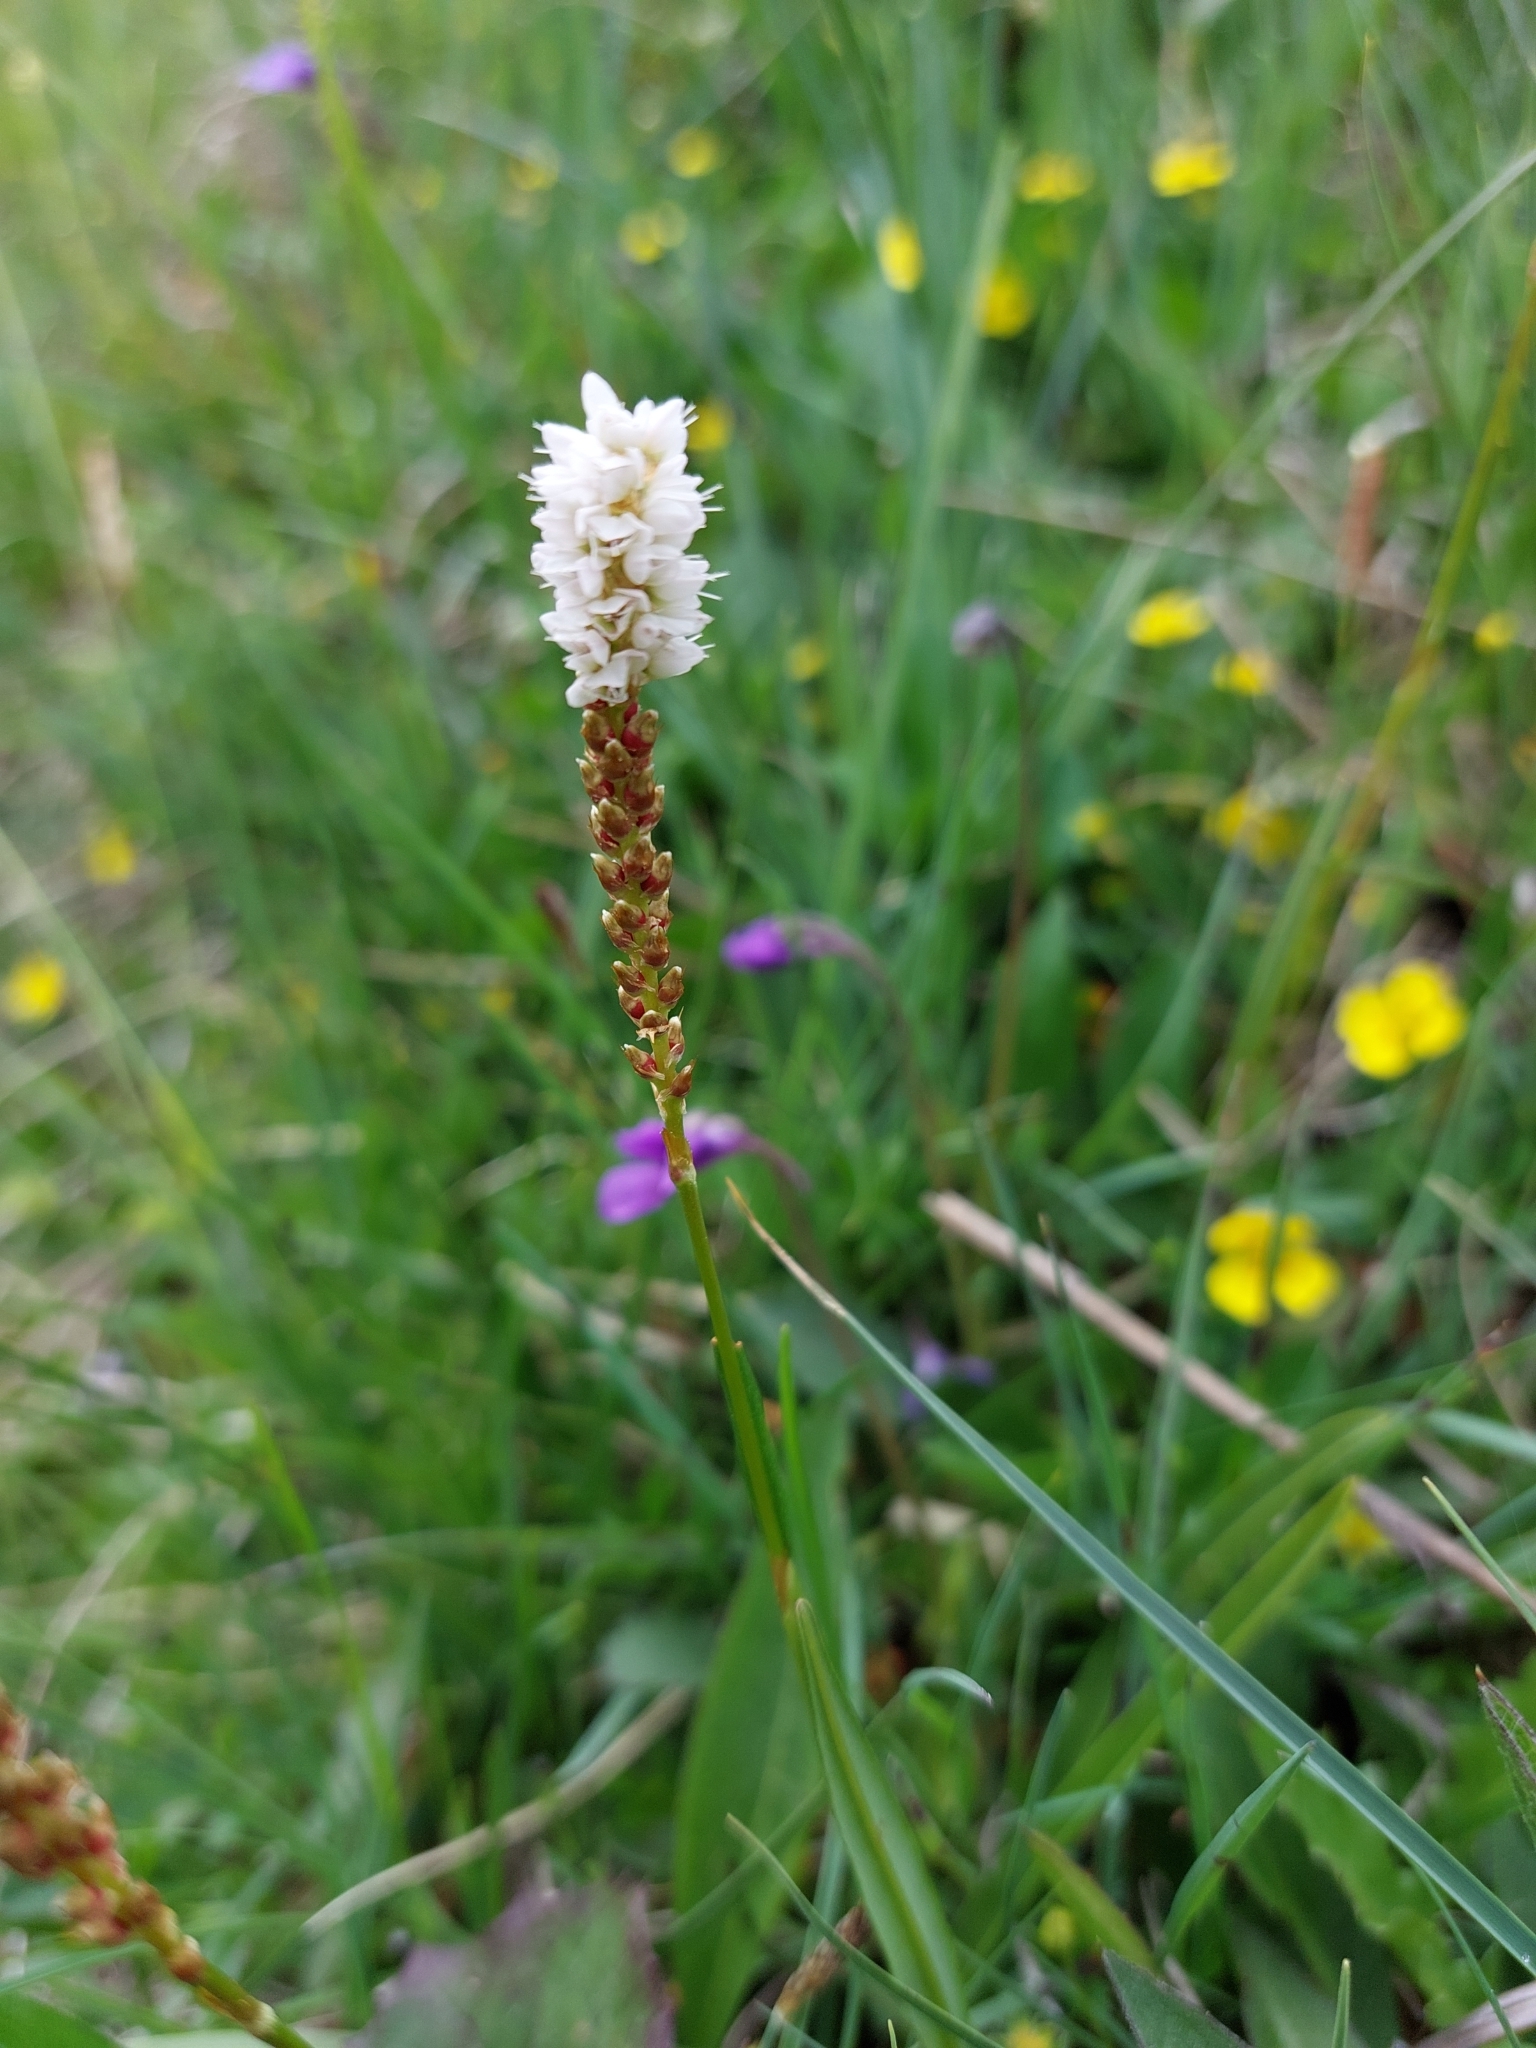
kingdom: Plantae
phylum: Tracheophyta
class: Magnoliopsida
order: Caryophyllales
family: Polygonaceae
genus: Bistorta
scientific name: Bistorta vivipara
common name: Alpine bistort
